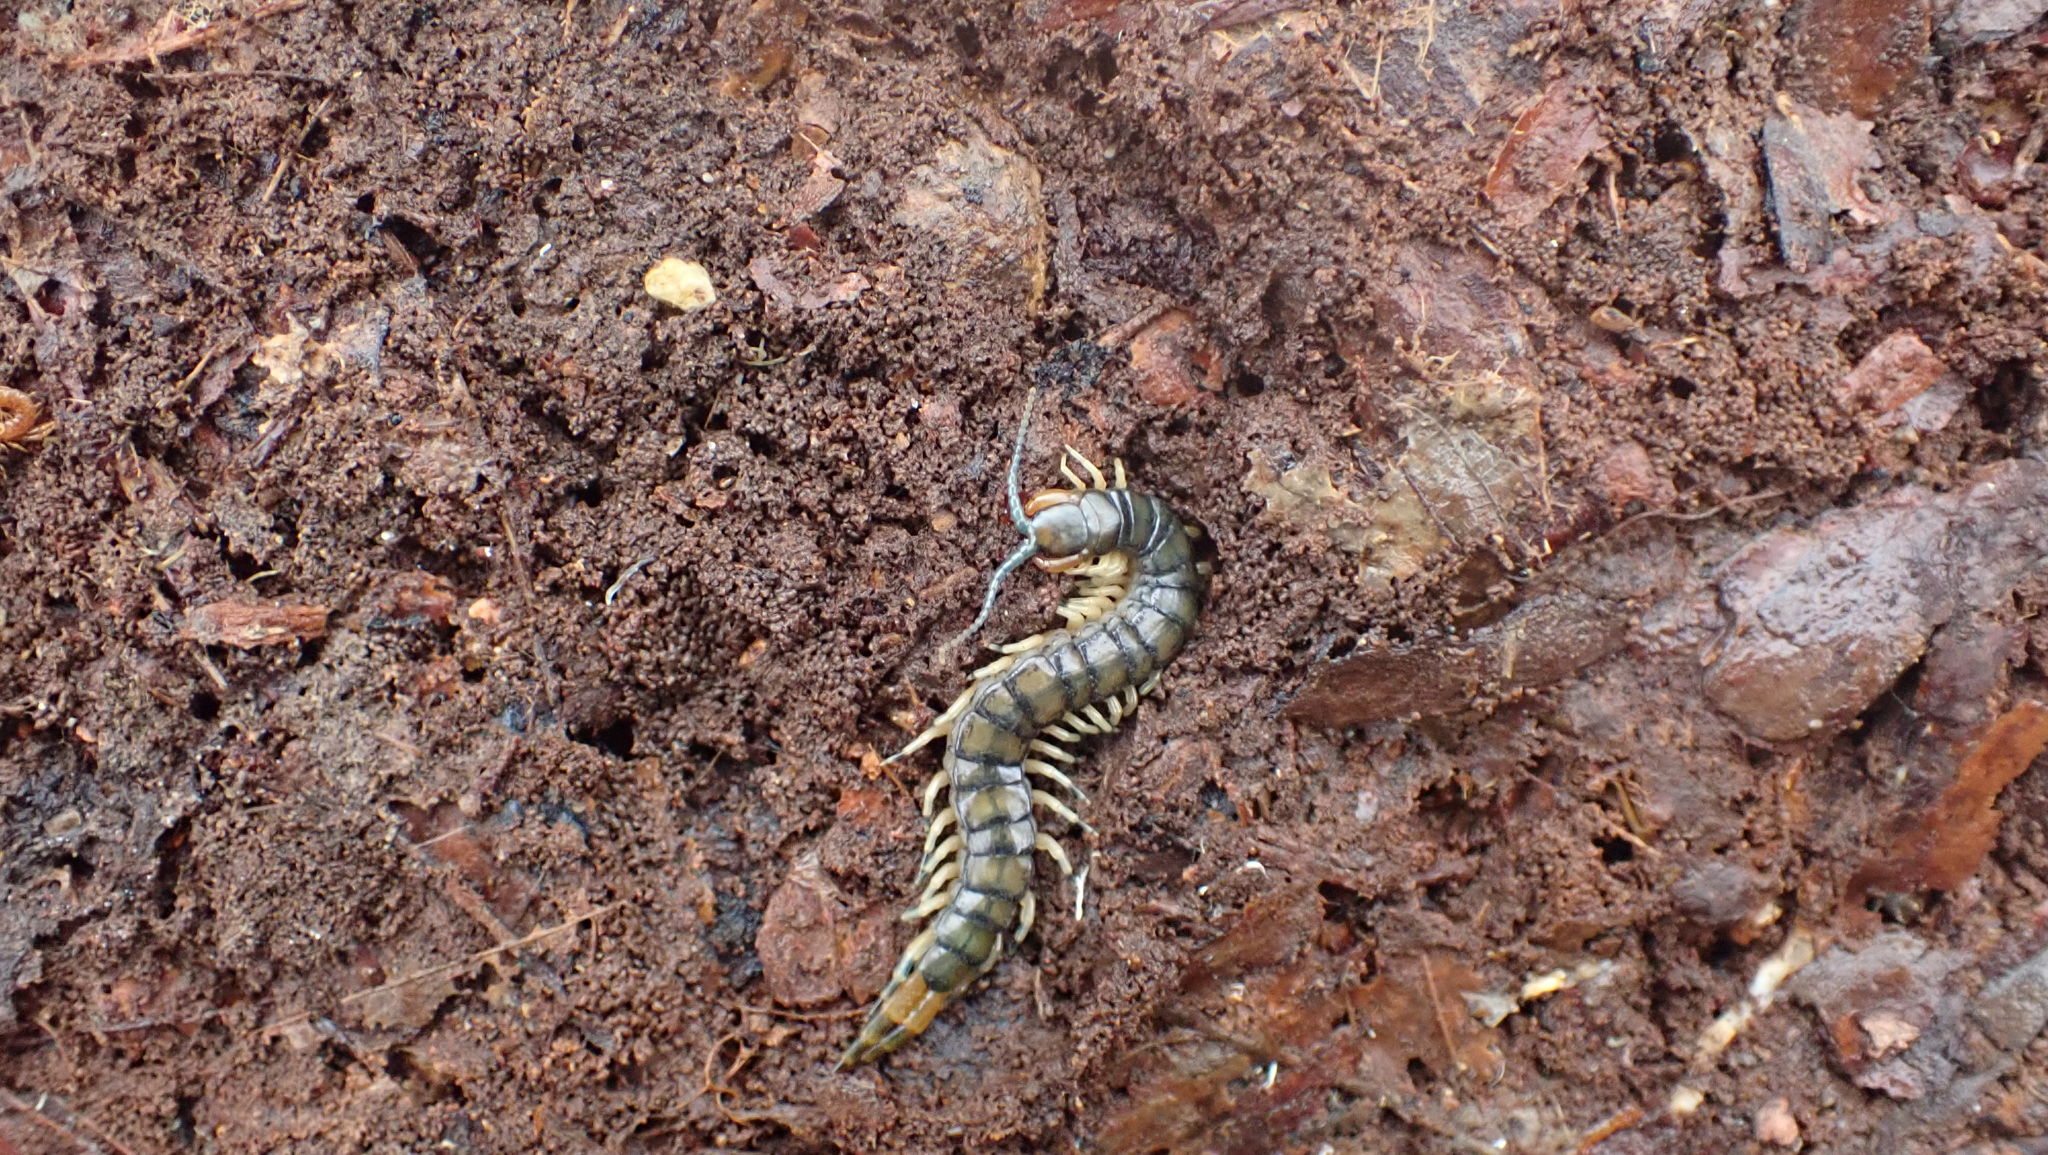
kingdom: Animalia
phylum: Arthropoda
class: Chilopoda
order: Scolopendromorpha
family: Scolopendridae
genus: Hemiscolopendra
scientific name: Hemiscolopendra marginata
